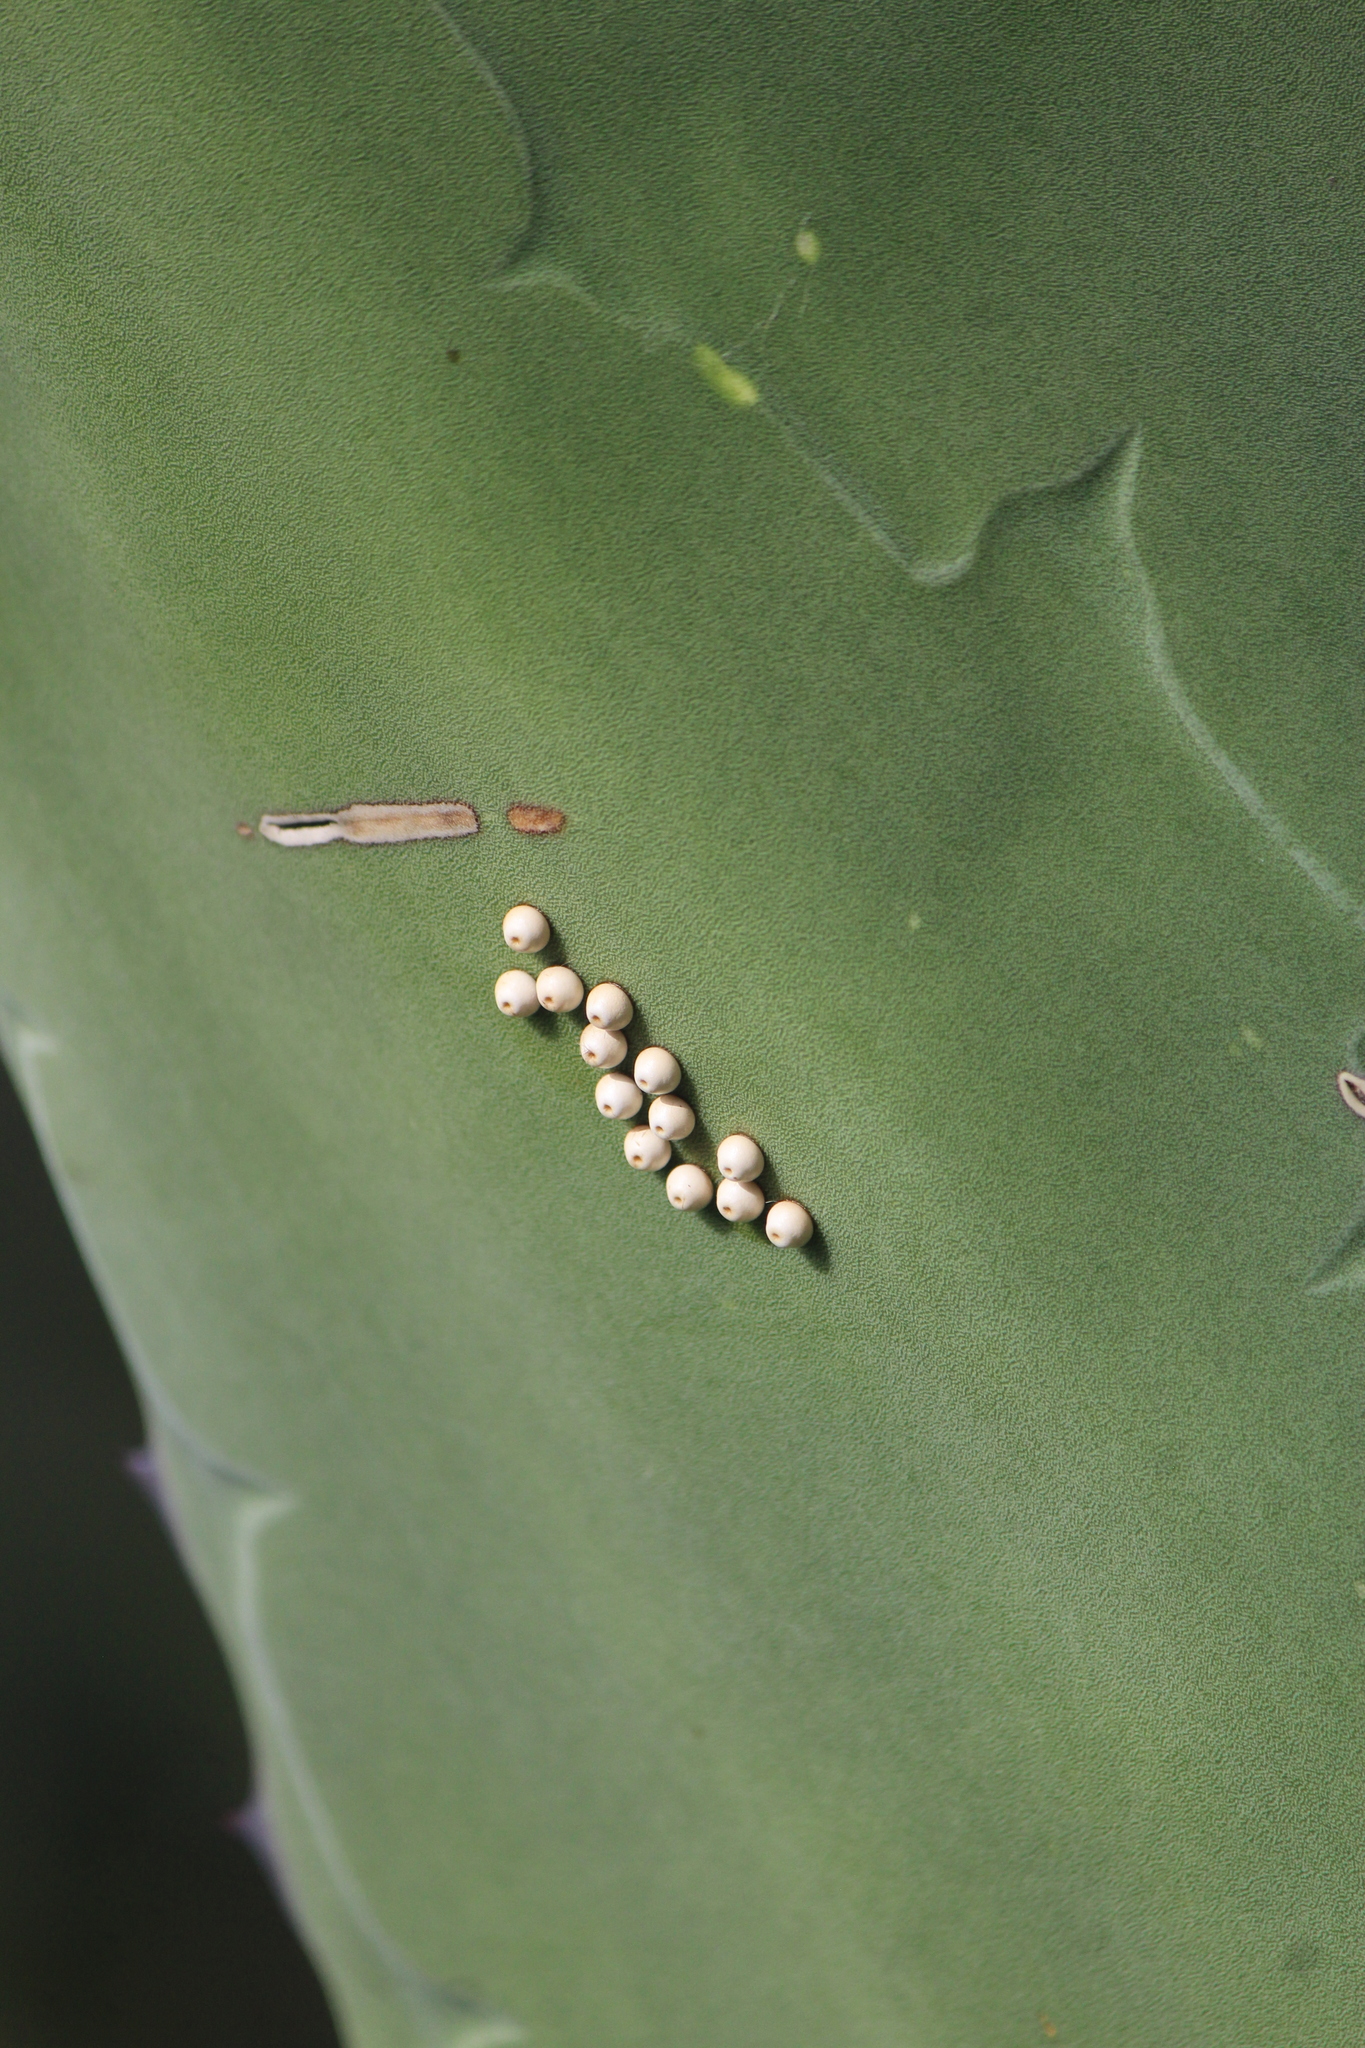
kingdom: Animalia
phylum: Arthropoda
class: Insecta
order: Lepidoptera
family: Hesperiidae
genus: Aegiale
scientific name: Aegiale hesperiaris
